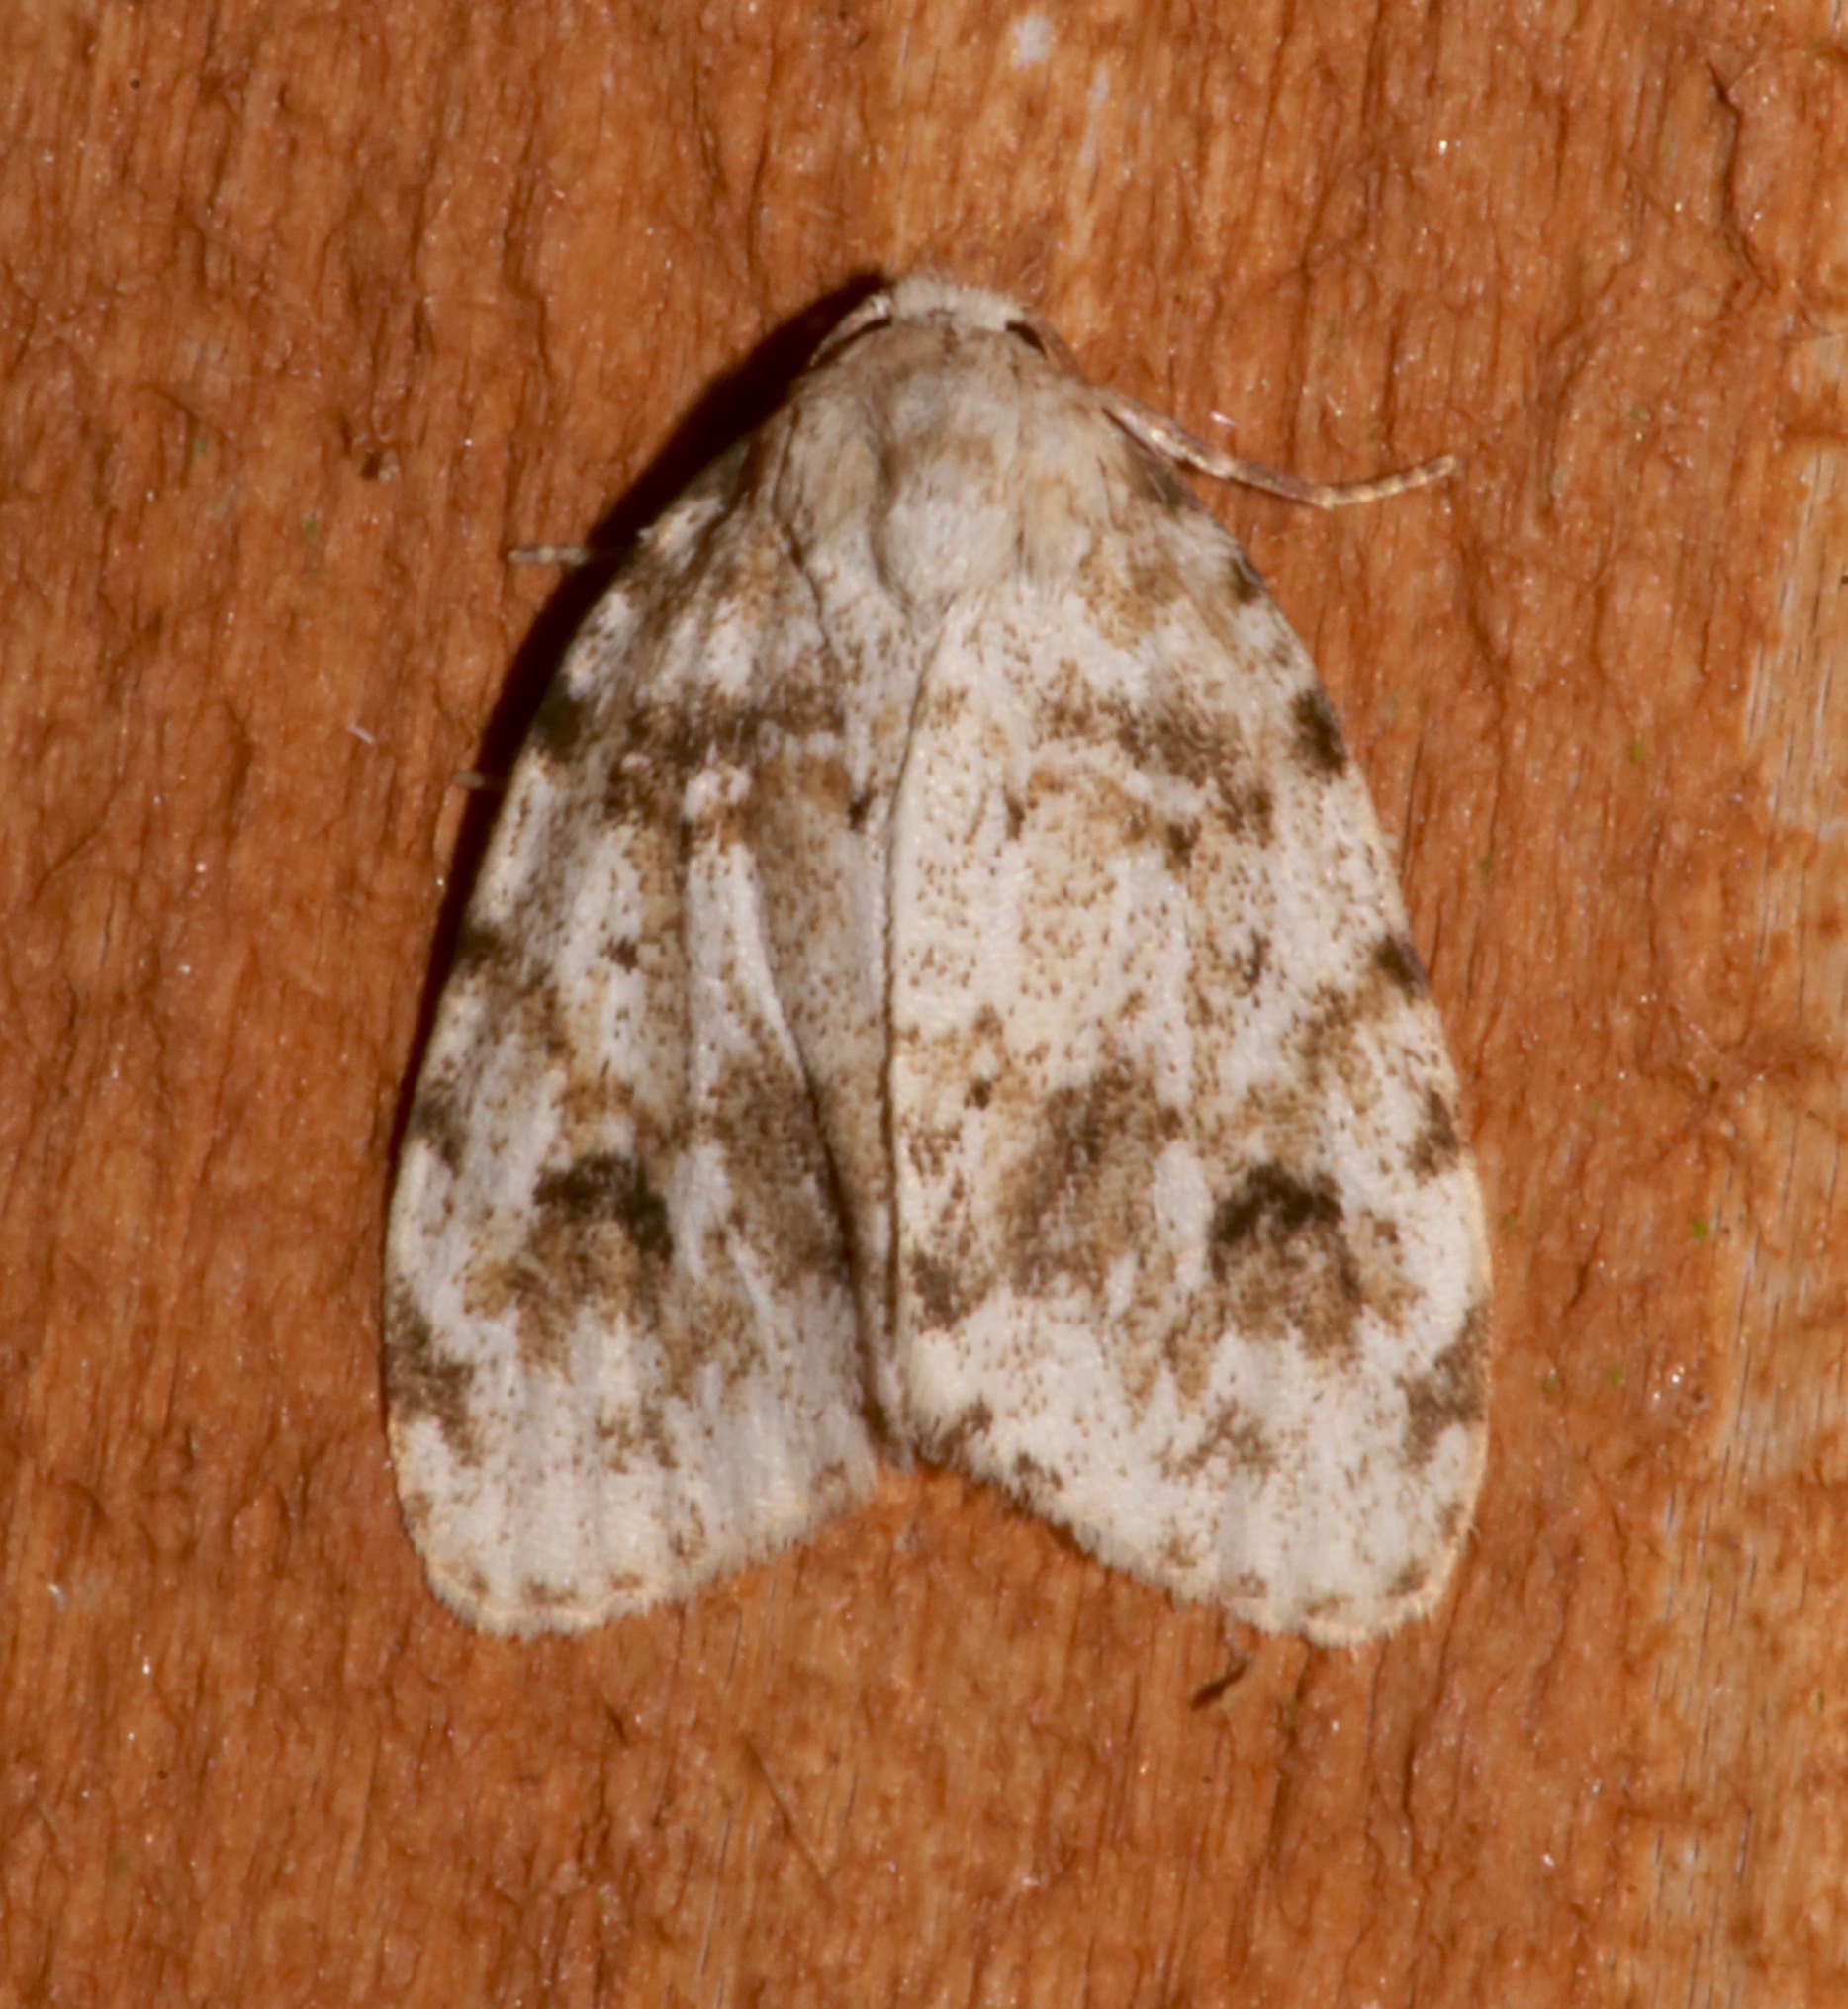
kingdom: Animalia
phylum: Arthropoda
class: Insecta
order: Lepidoptera
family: Erebidae
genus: Clemensia
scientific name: Clemensia ochreata
